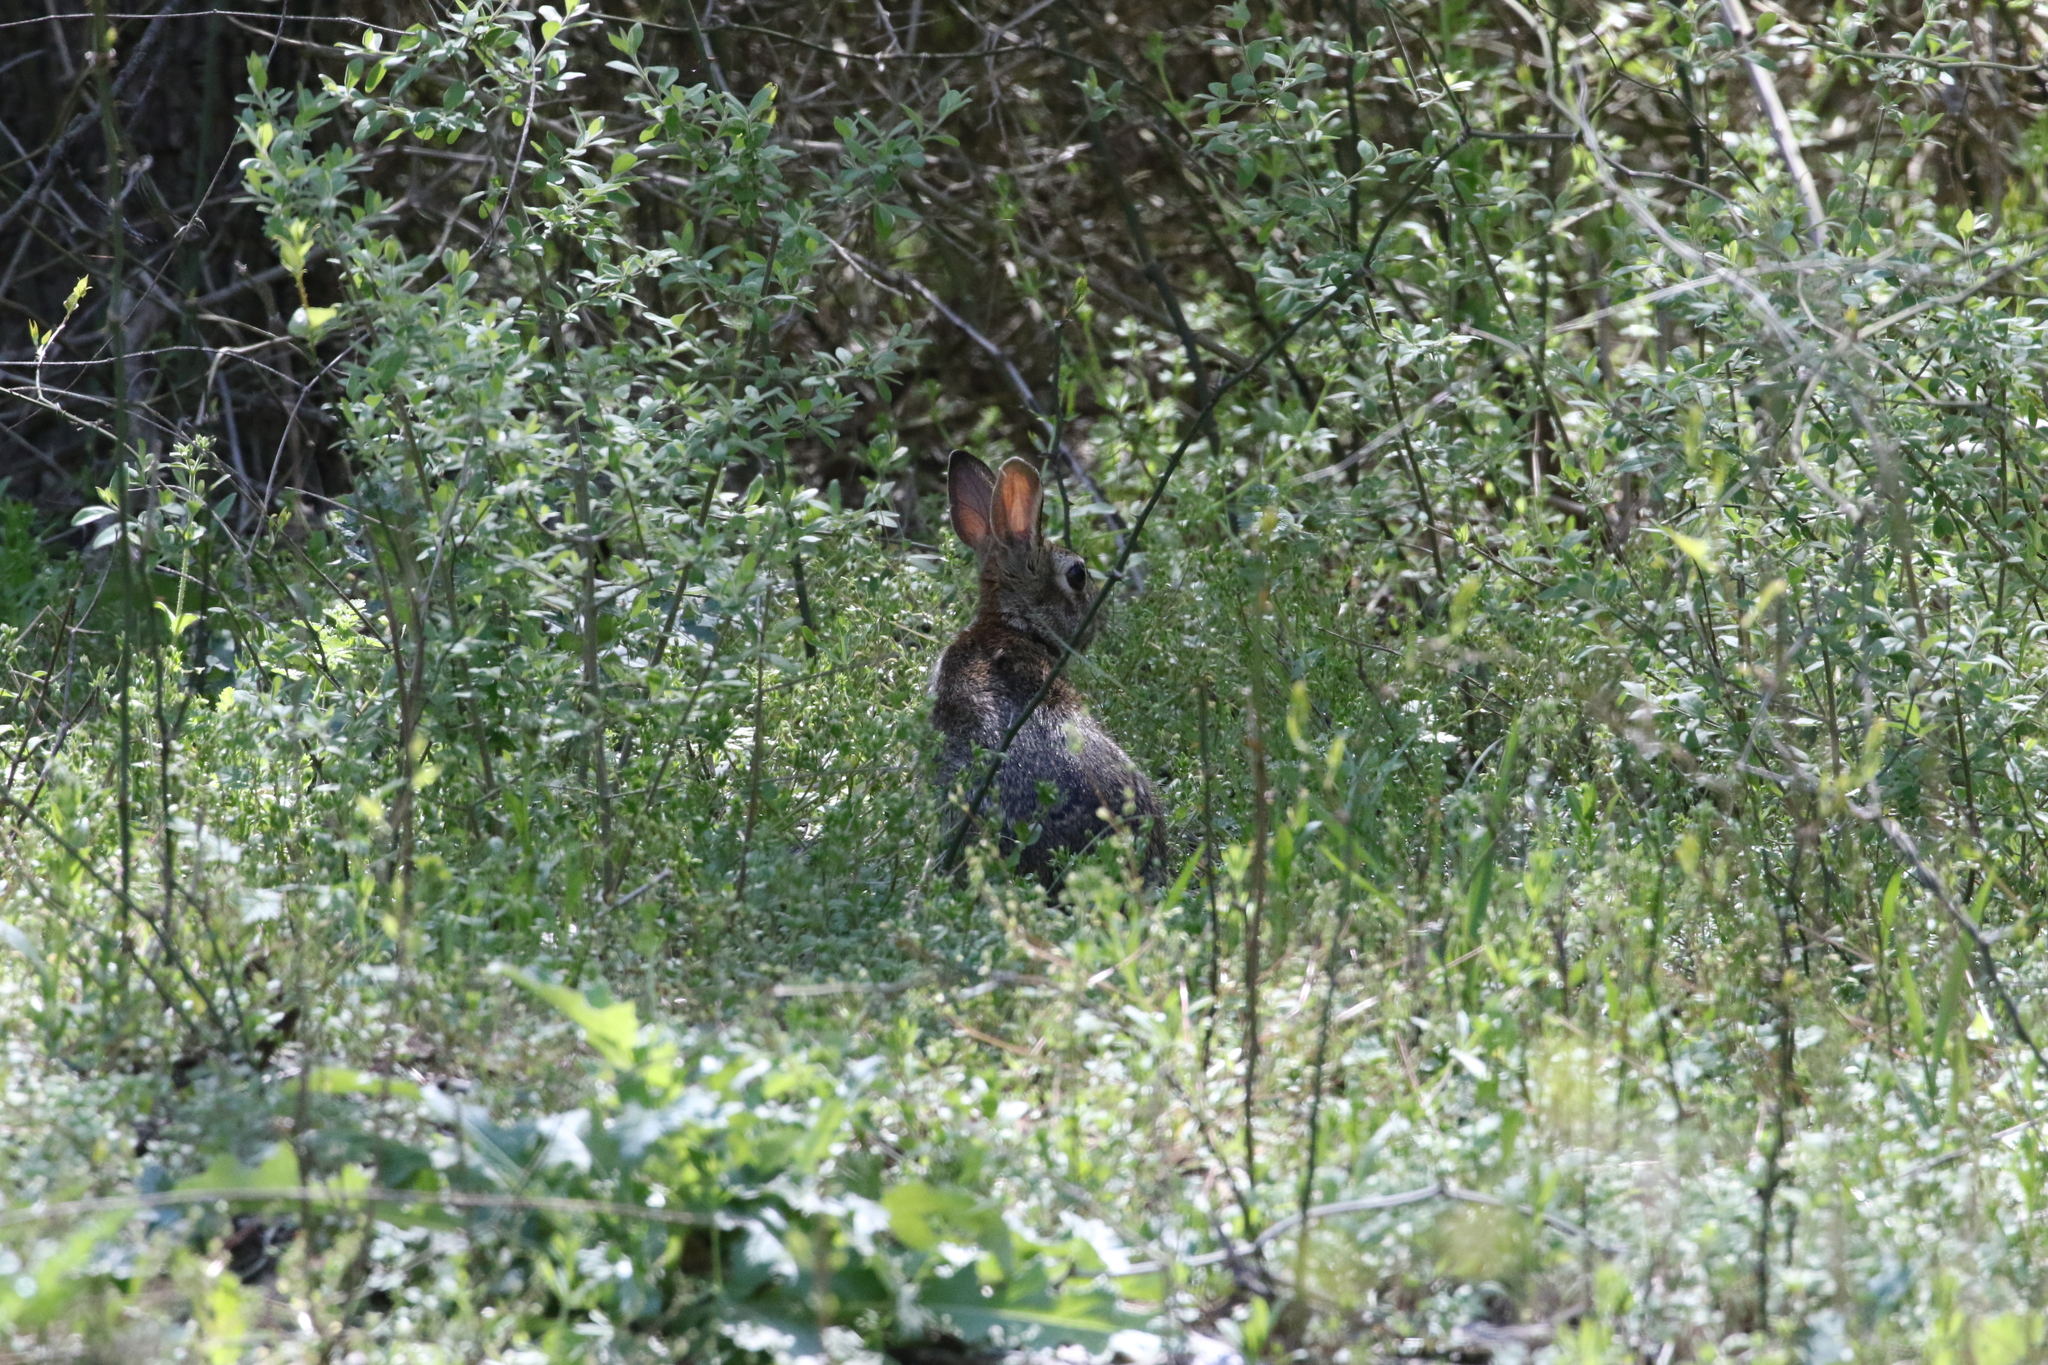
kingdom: Animalia
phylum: Chordata
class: Mammalia
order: Lagomorpha
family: Leporidae
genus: Sylvilagus
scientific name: Sylvilagus floridanus
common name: Eastern cottontail
